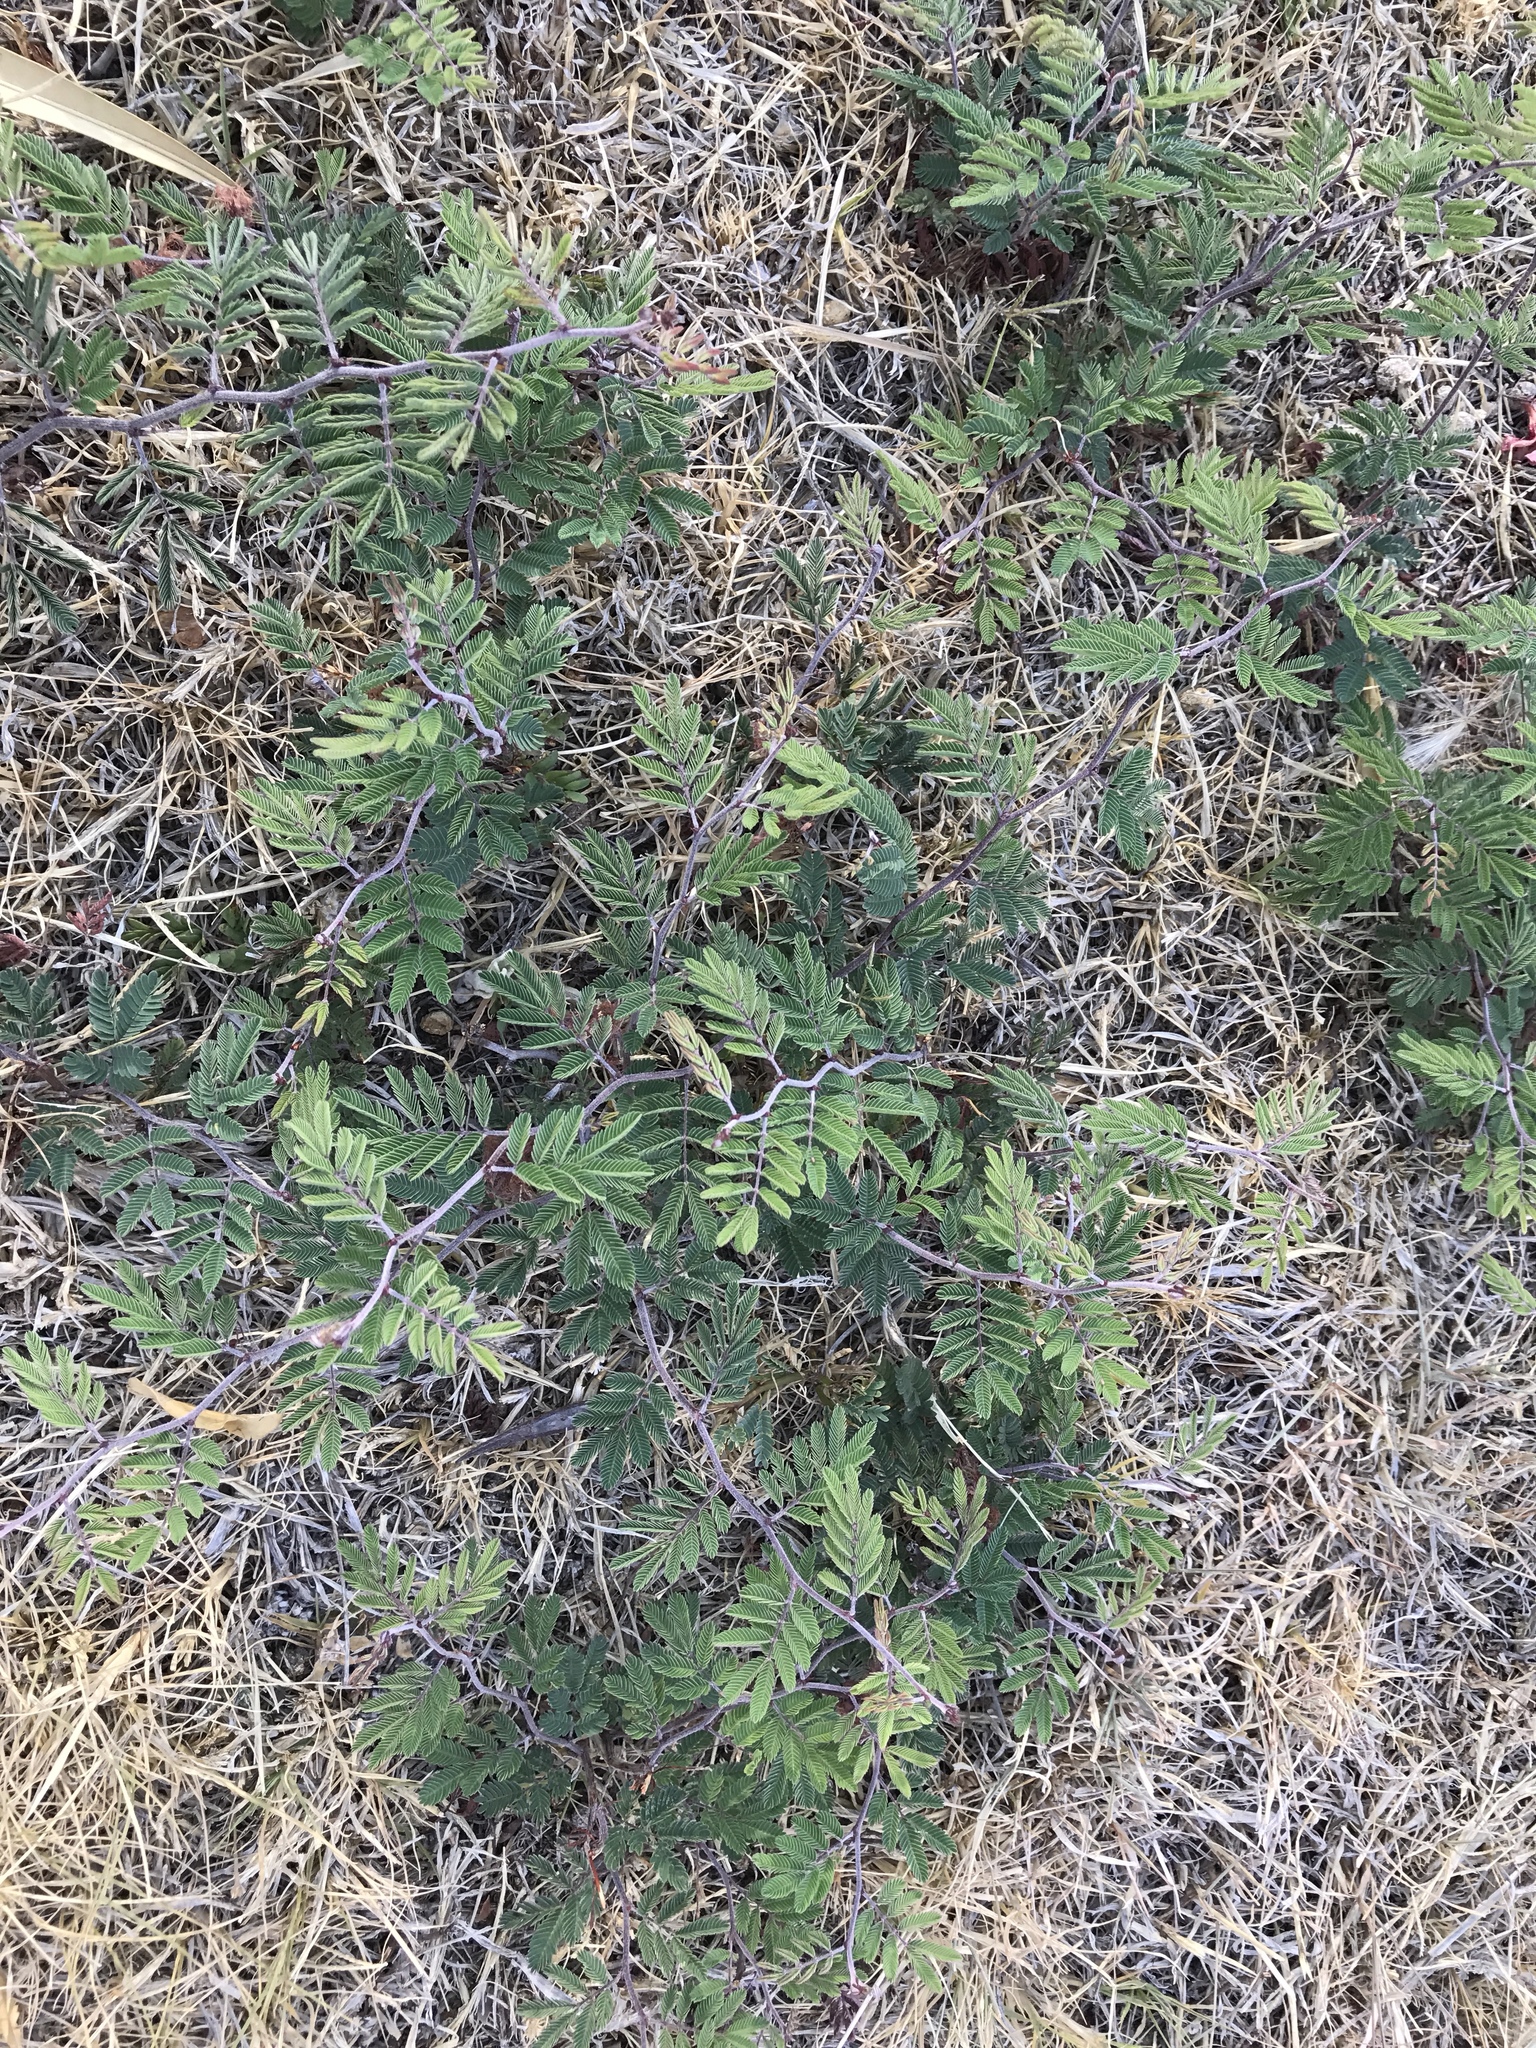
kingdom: Plantae
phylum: Tracheophyta
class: Magnoliopsida
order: Fabales
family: Fabaceae
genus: Calliandra
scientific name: Calliandra eriophylla
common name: Fairy-duster
